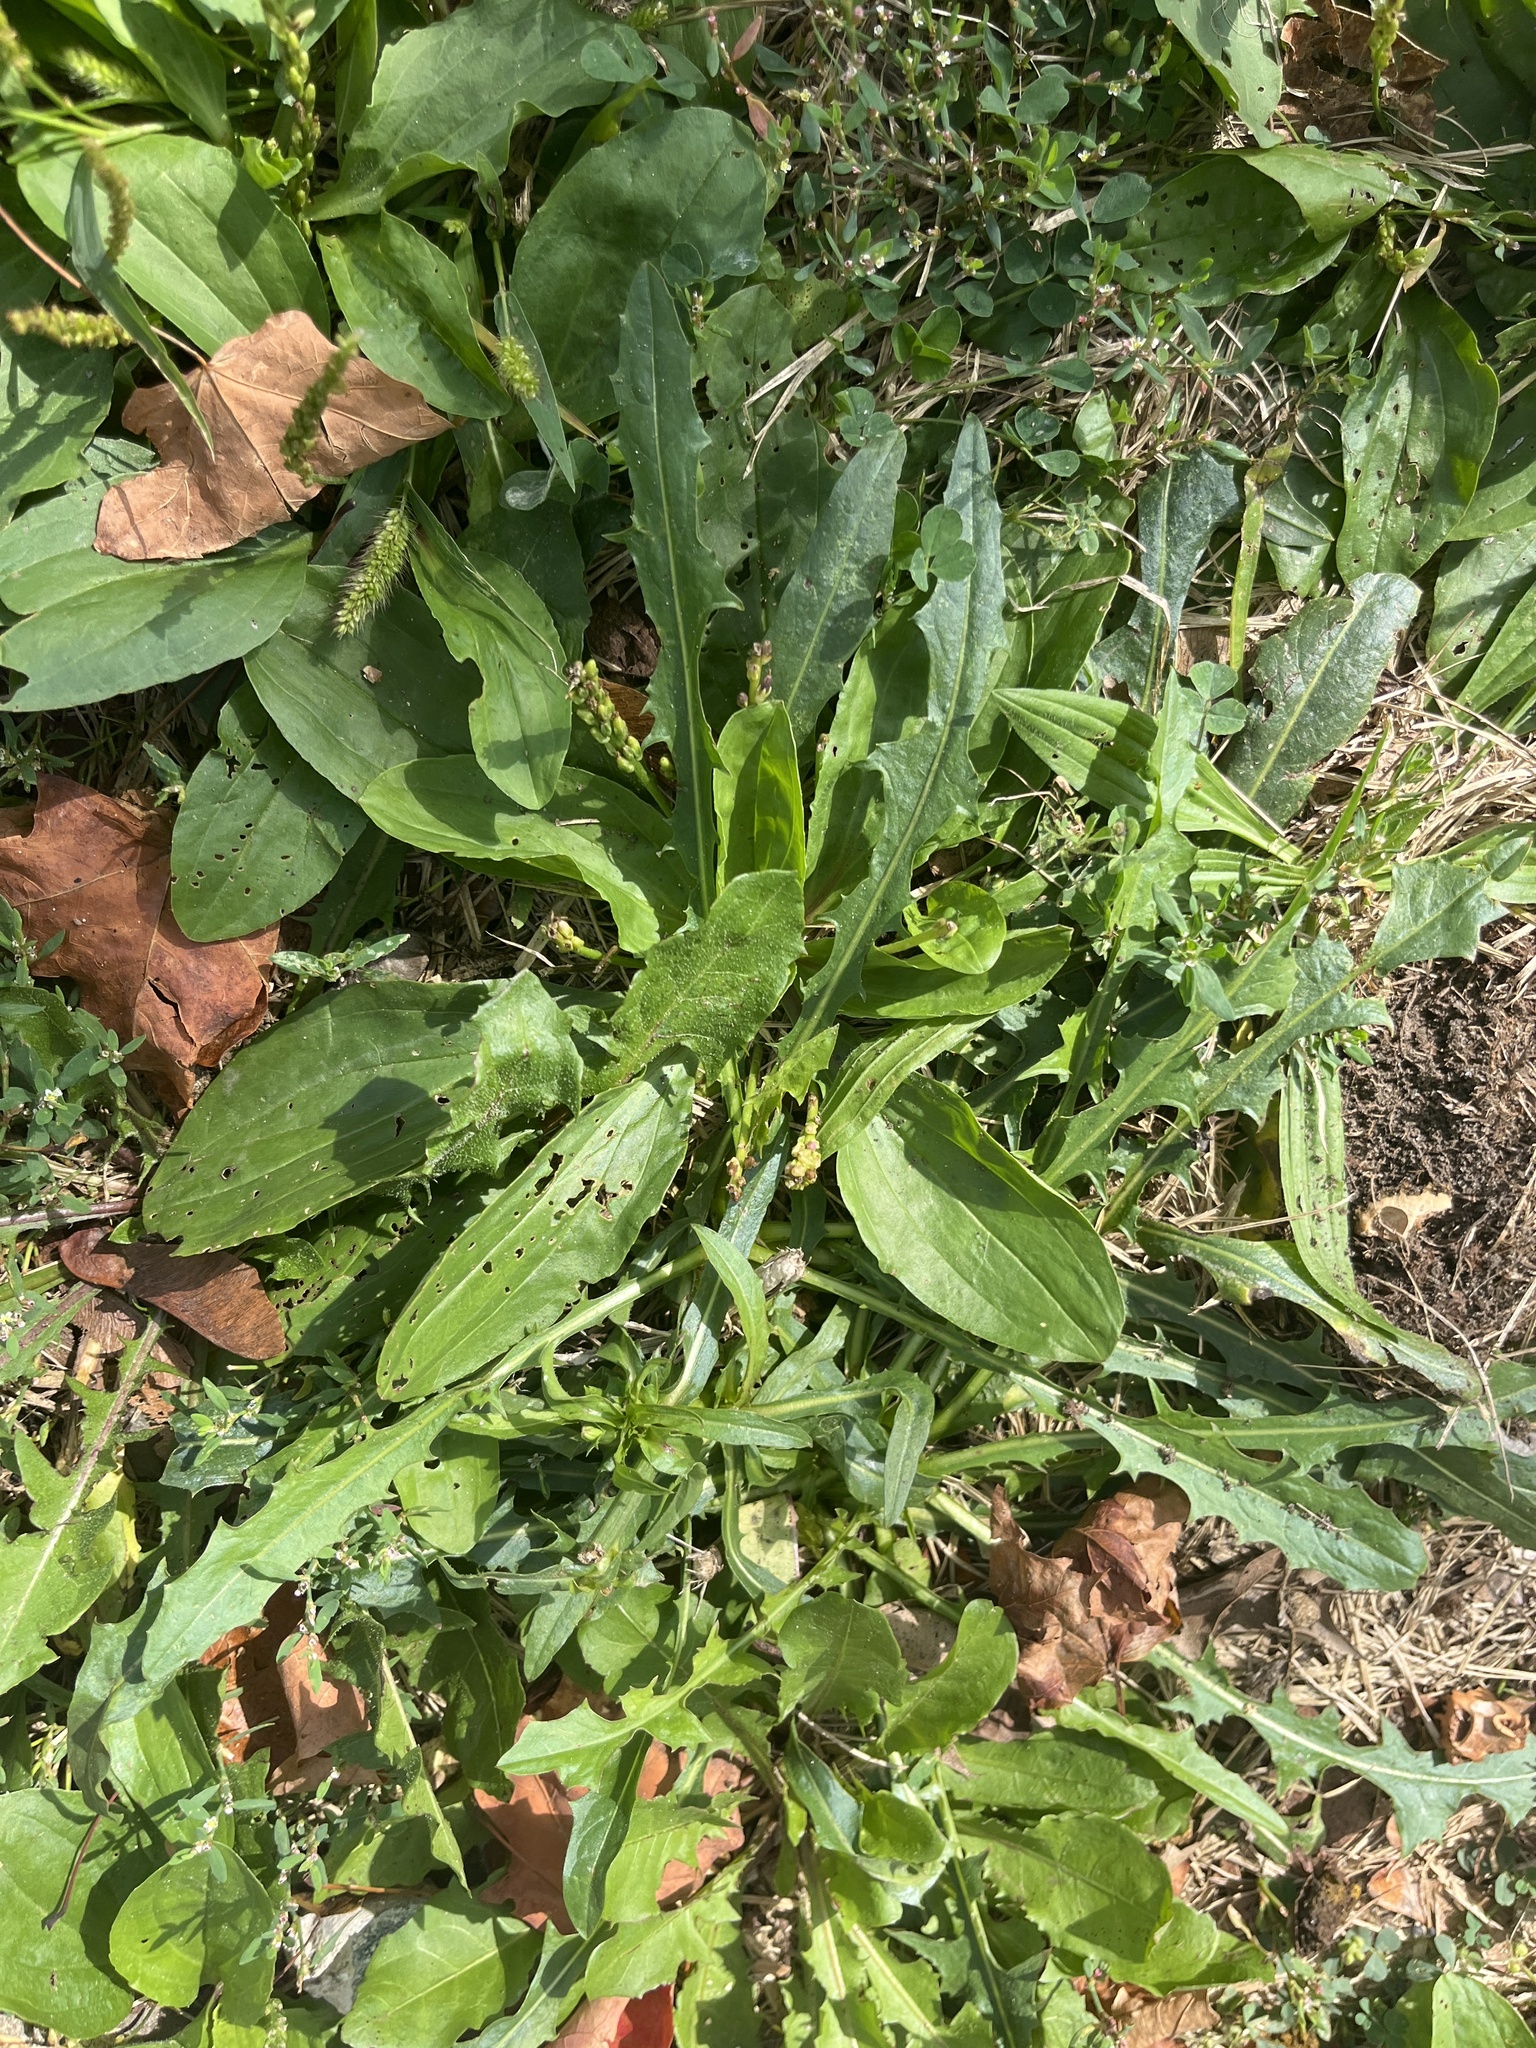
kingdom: Plantae
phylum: Tracheophyta
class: Magnoliopsida
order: Lamiales
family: Plantaginaceae
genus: Plantago
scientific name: Plantago lanceolata
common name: Ribwort plantain
